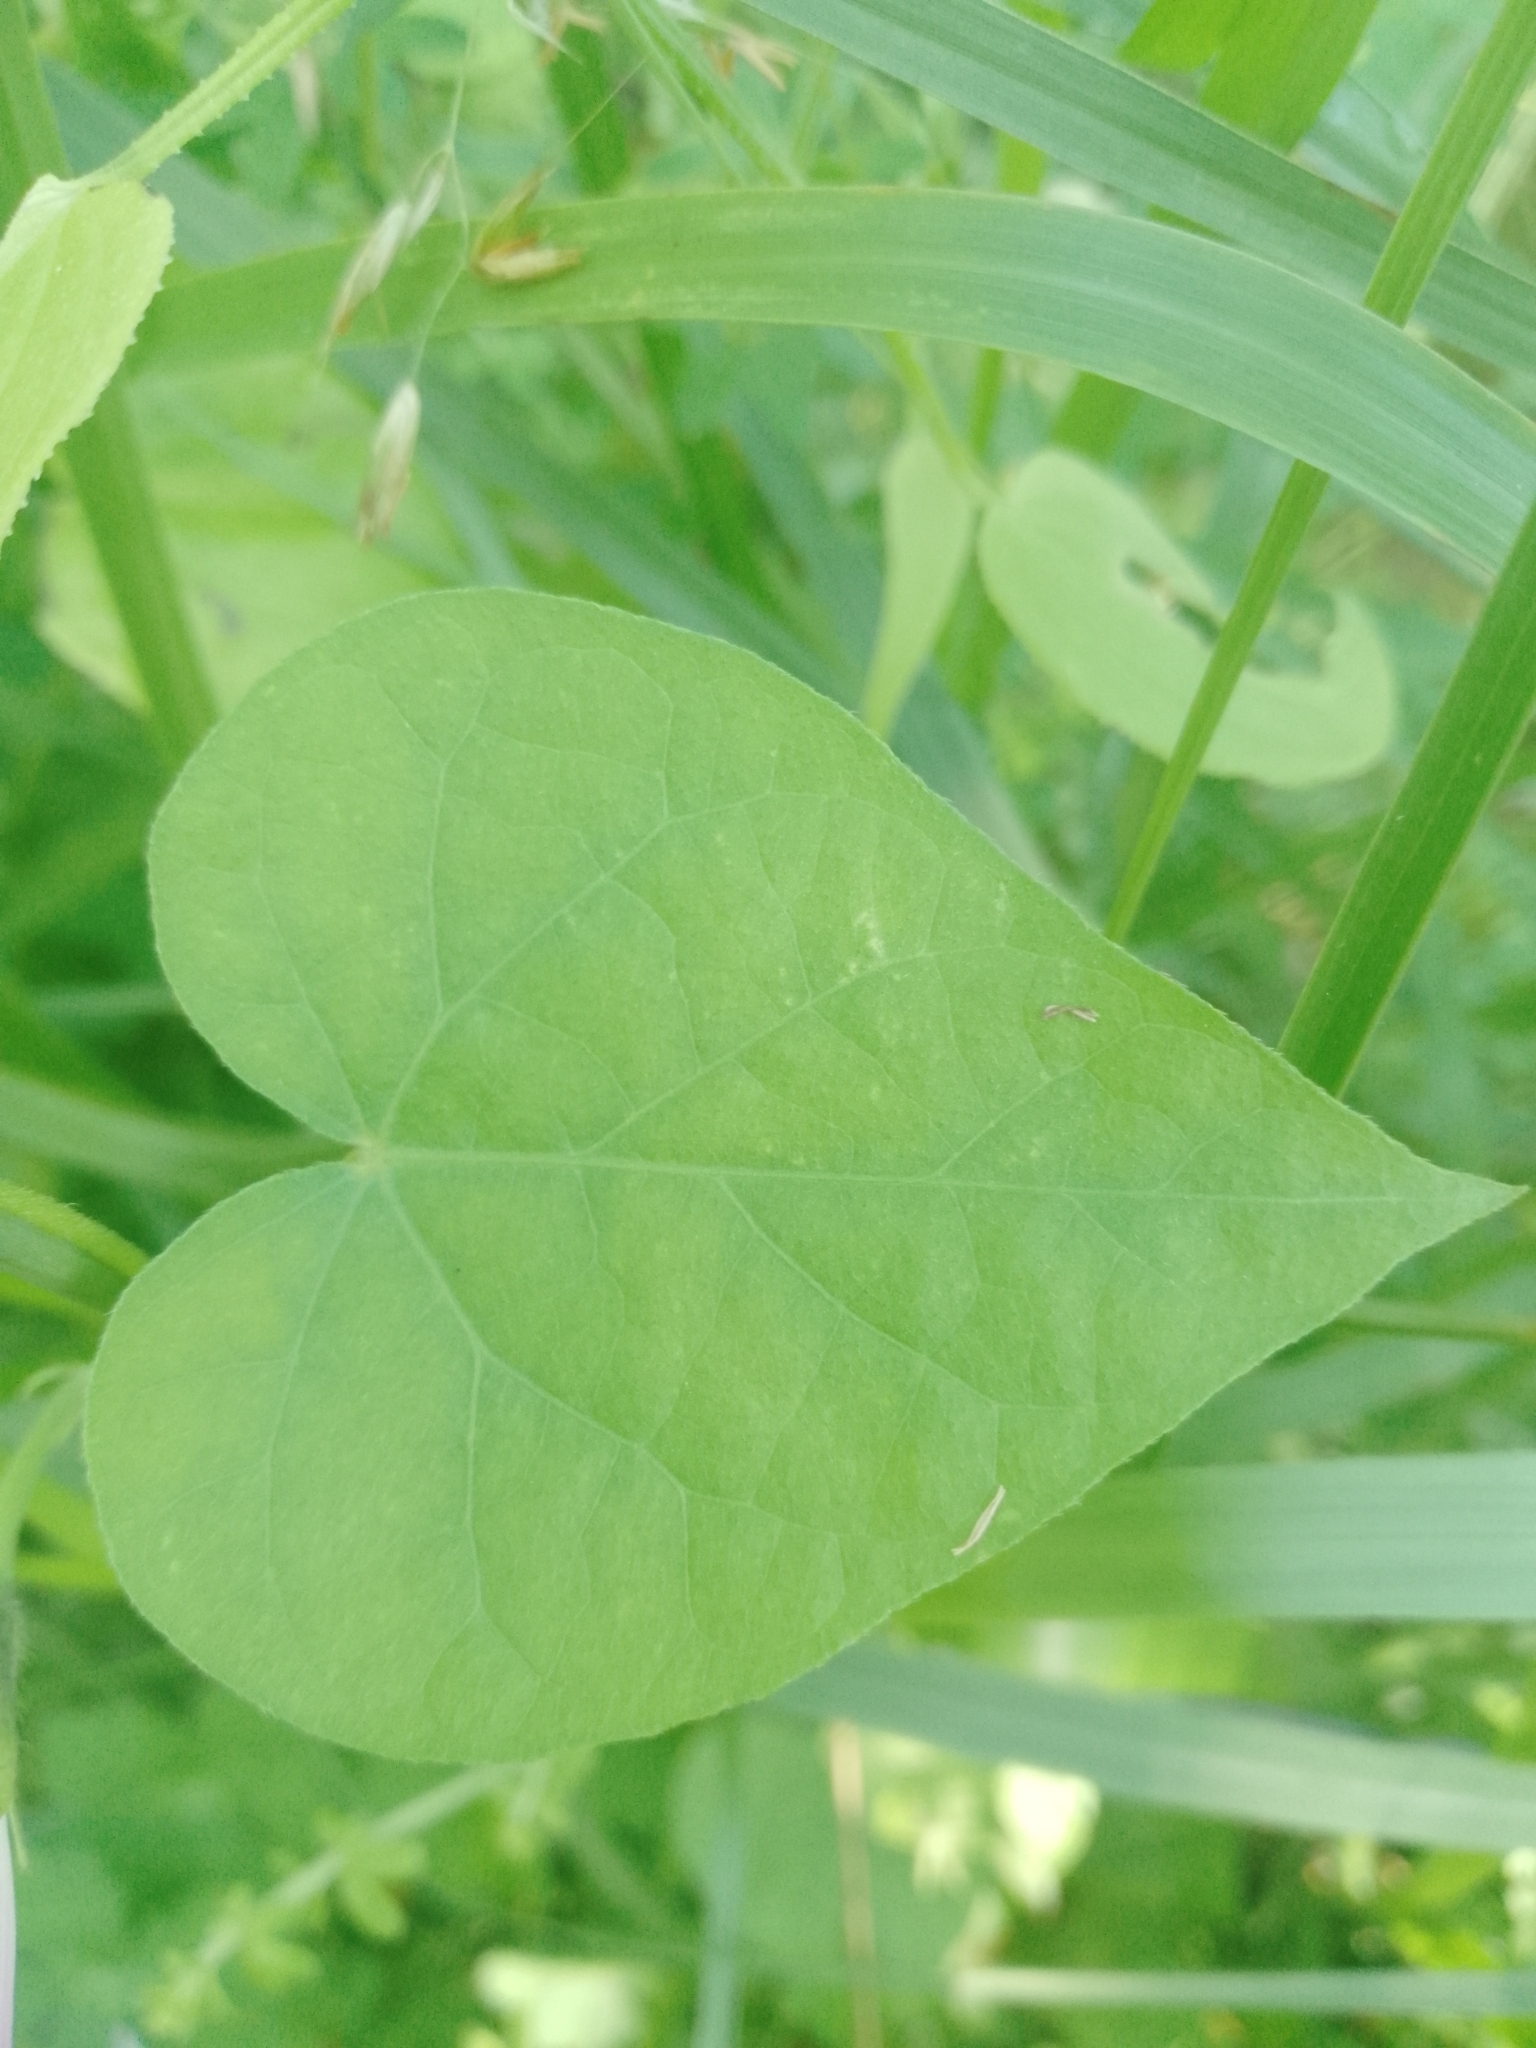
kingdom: Plantae
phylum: Tracheophyta
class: Magnoliopsida
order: Solanales
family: Convolvulaceae
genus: Ipomoea
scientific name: Ipomoea purpurea
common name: Common morning-glory
